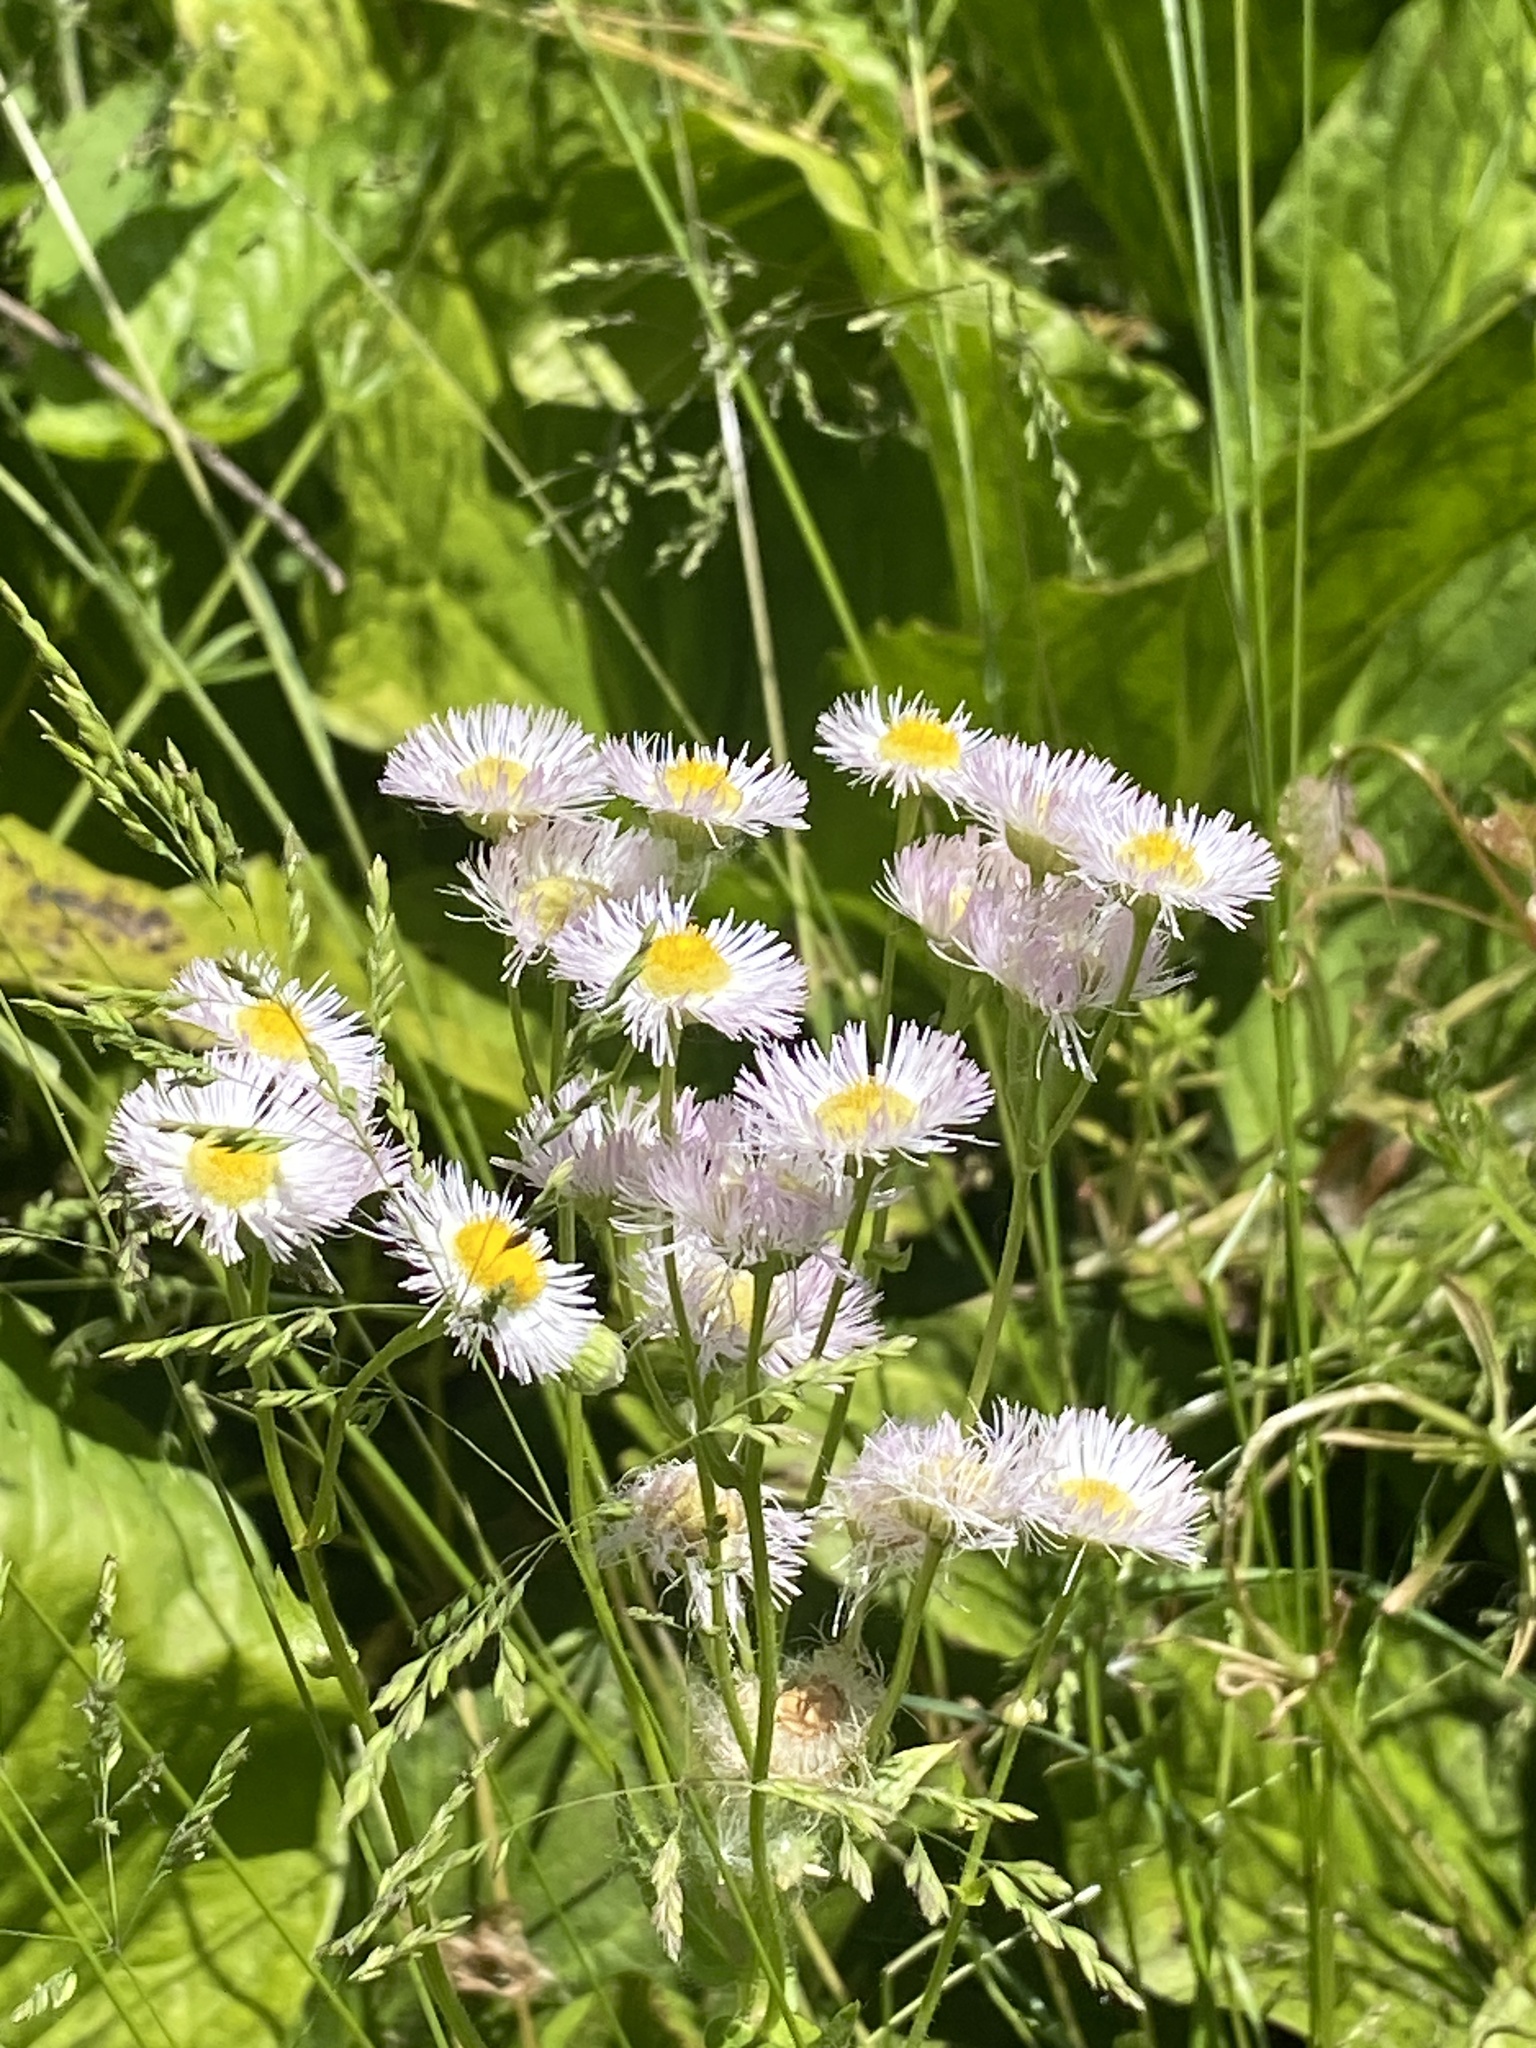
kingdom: Plantae
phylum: Tracheophyta
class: Magnoliopsida
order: Asterales
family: Asteraceae
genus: Erigeron
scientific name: Erigeron philadelphicus
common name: Robin's-plantain
